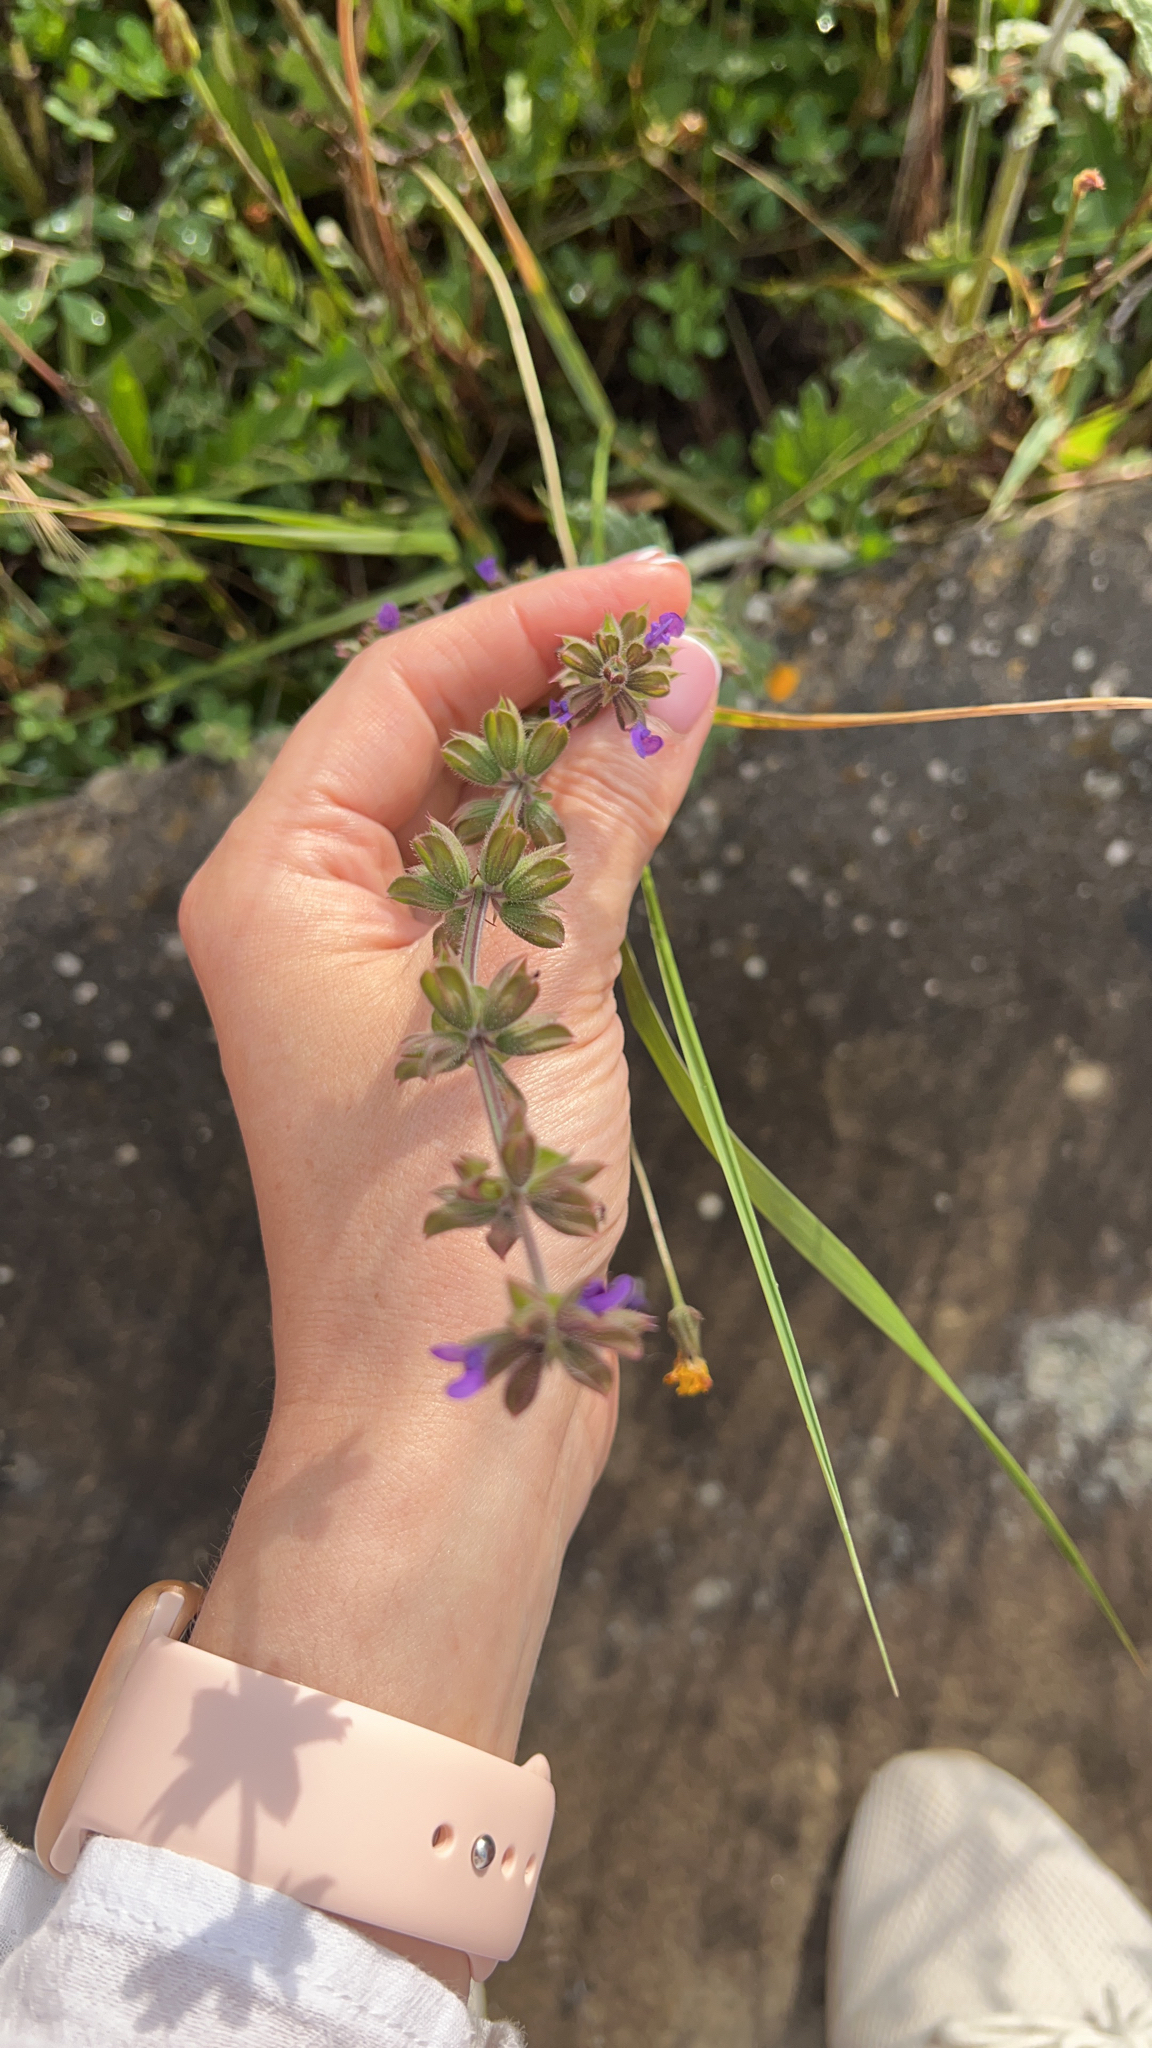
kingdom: Plantae
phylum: Tracheophyta
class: Magnoliopsida
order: Lamiales
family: Lamiaceae
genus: Salvia
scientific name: Salvia verbenaca
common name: Wild clary
